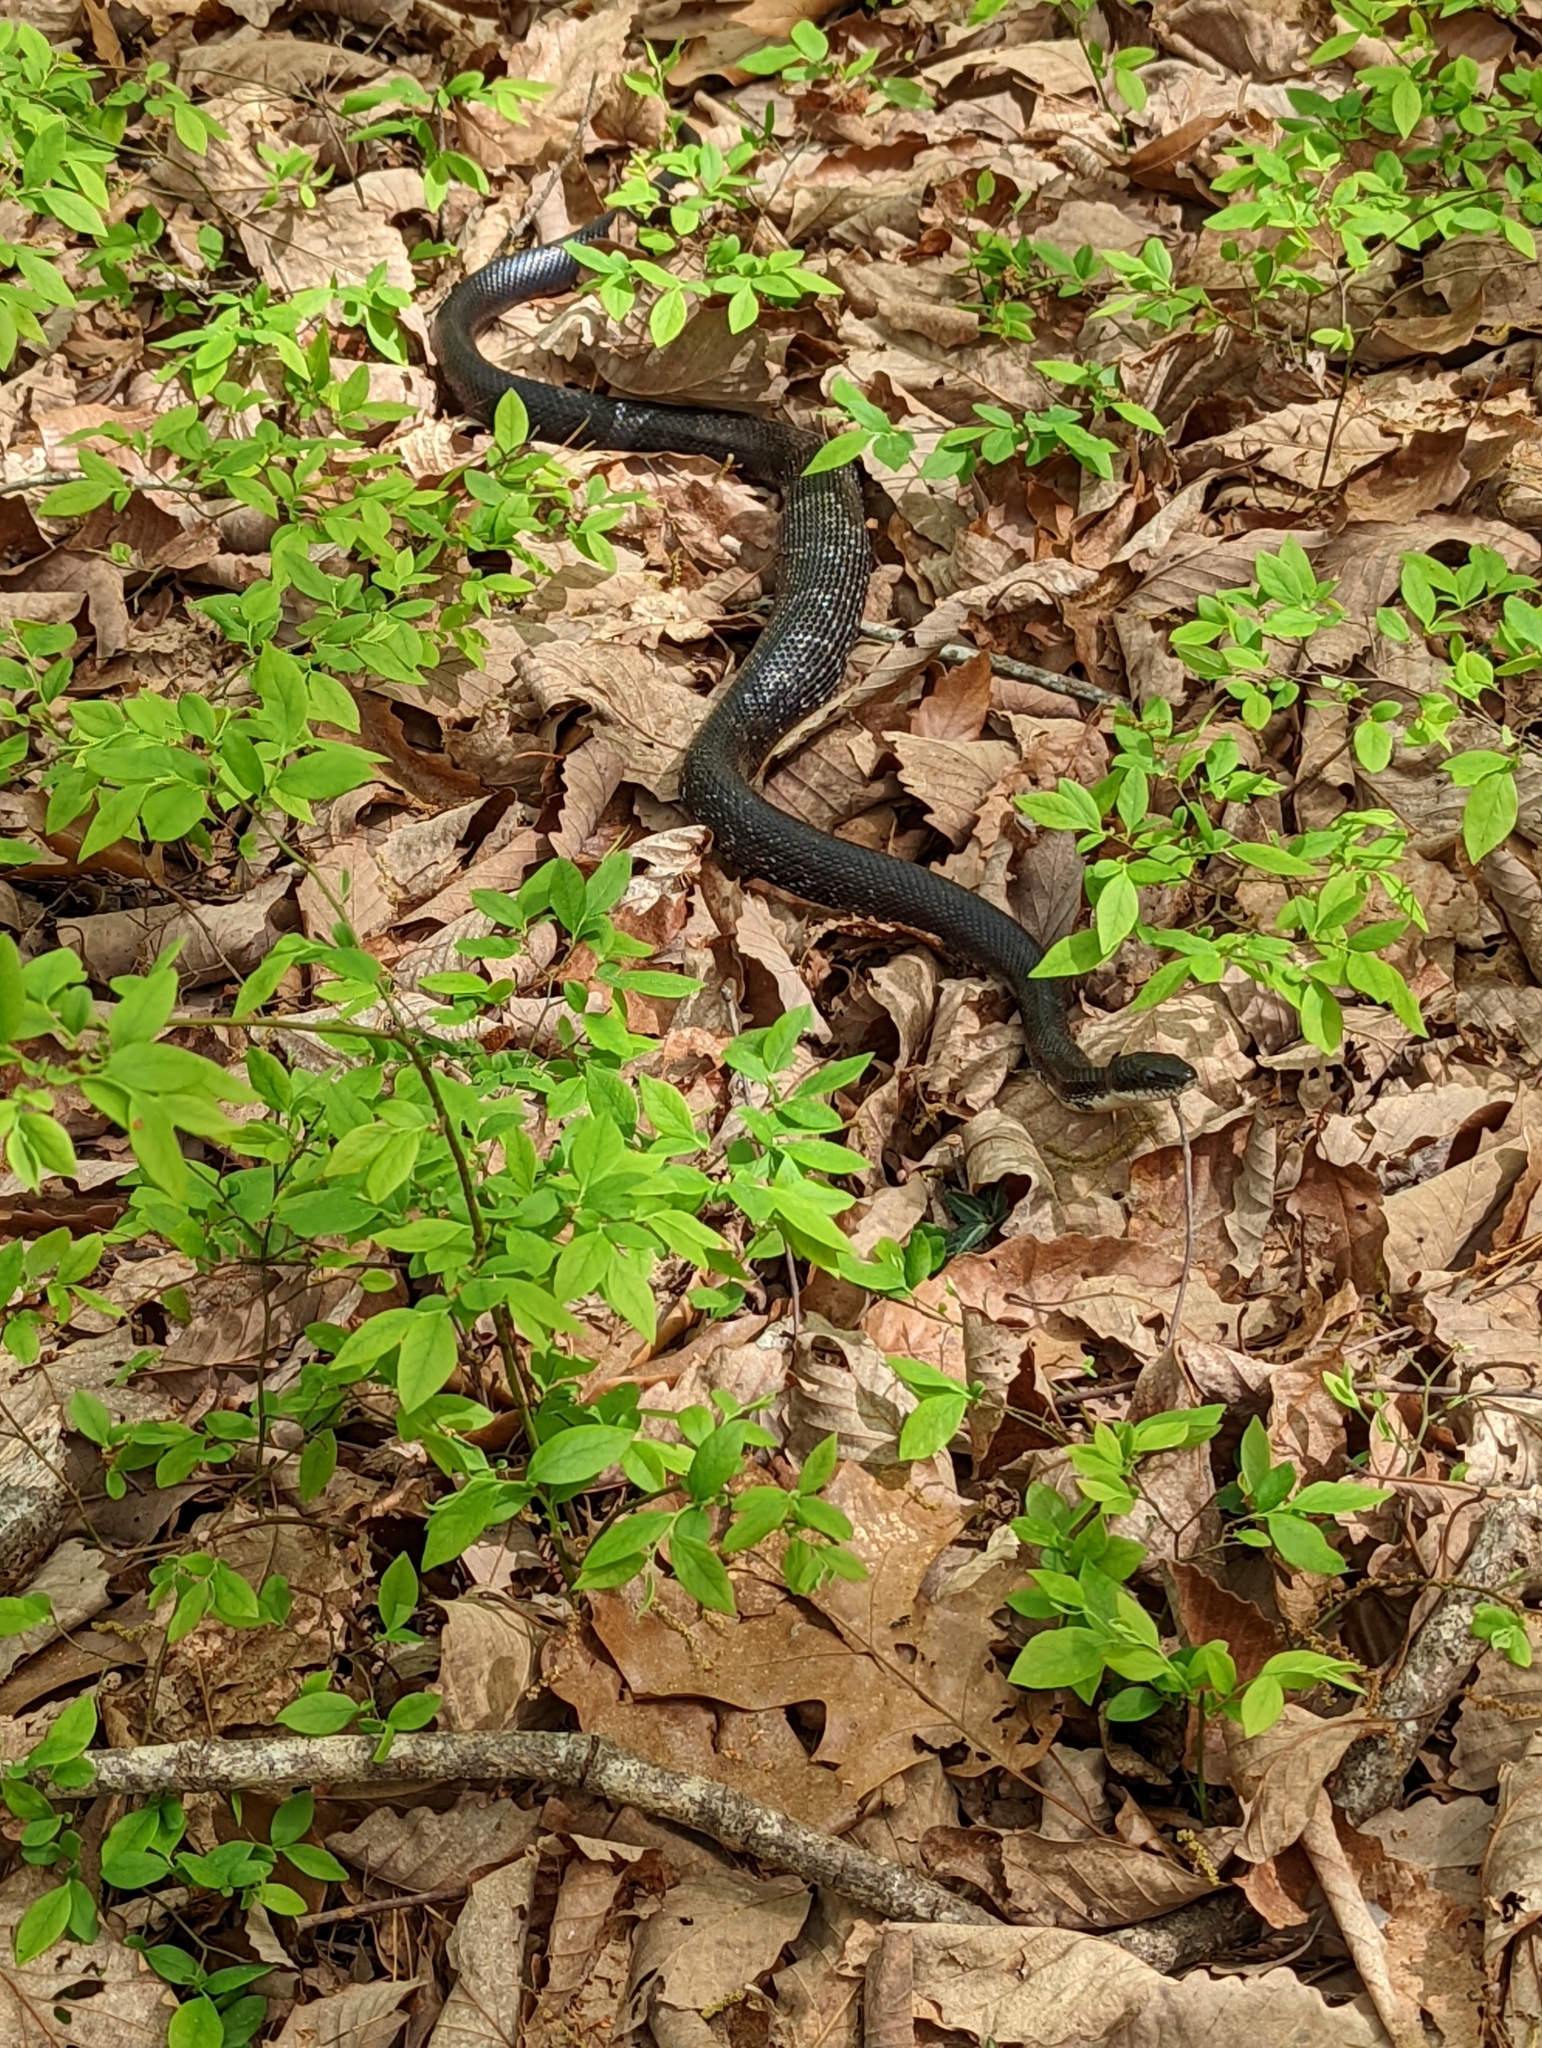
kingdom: Animalia
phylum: Chordata
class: Squamata
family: Colubridae
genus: Pantherophis
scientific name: Pantherophis alleghaniensis
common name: Eastern rat snake
